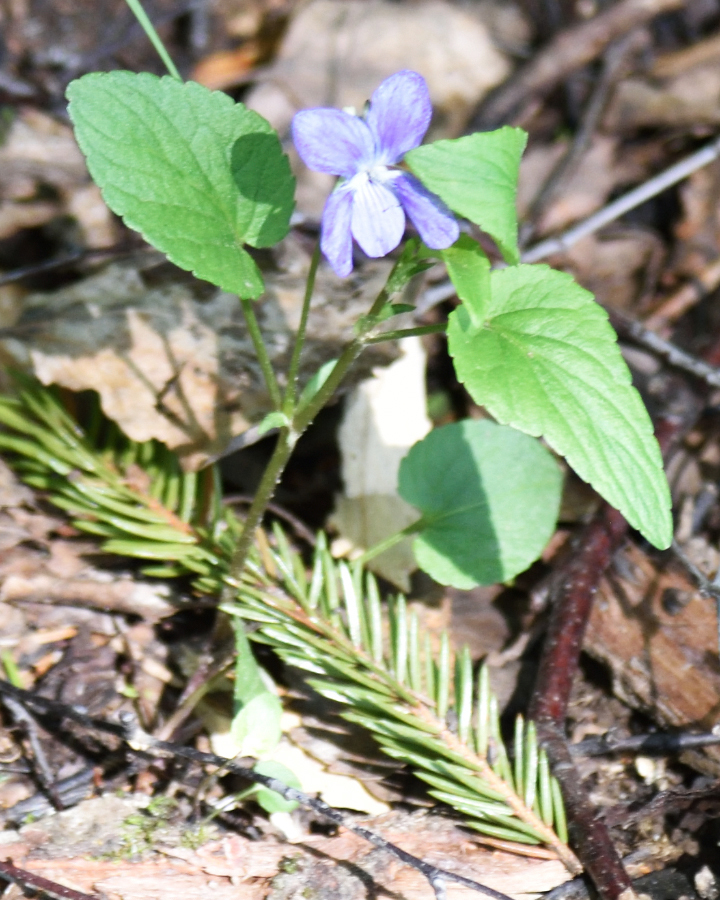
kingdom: Plantae
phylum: Tracheophyta
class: Magnoliopsida
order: Malpighiales
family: Violaceae
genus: Viola
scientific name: Viola
